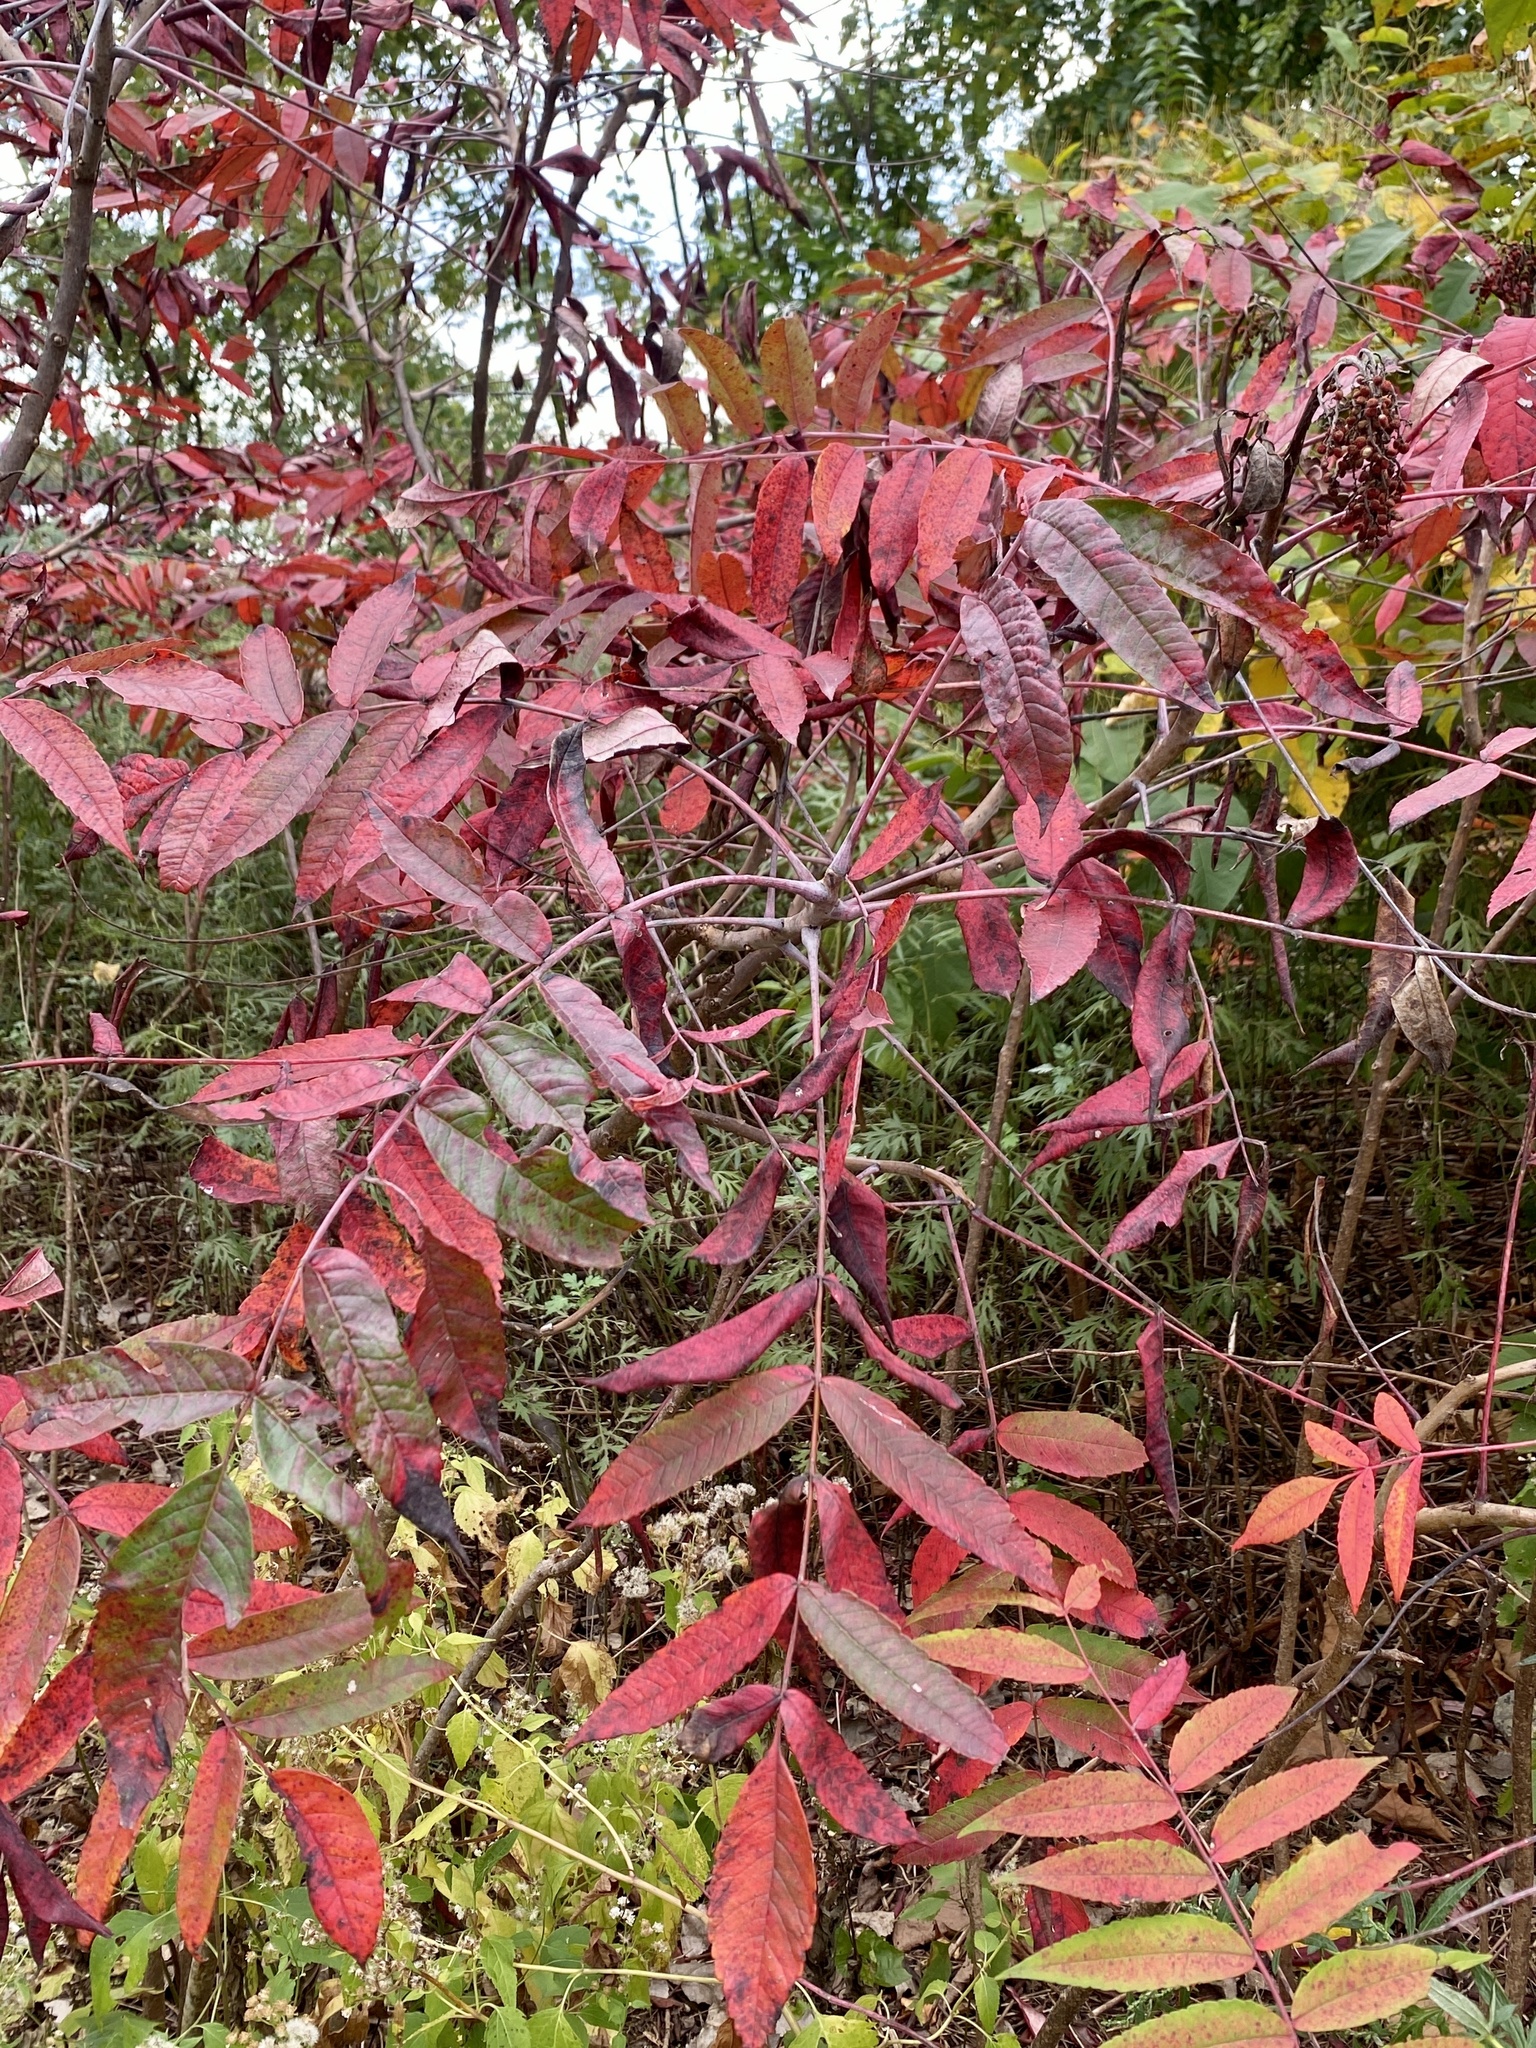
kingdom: Plantae
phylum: Tracheophyta
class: Magnoliopsida
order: Sapindales
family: Anacardiaceae
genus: Rhus
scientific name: Rhus glabra
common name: Scarlet sumac
